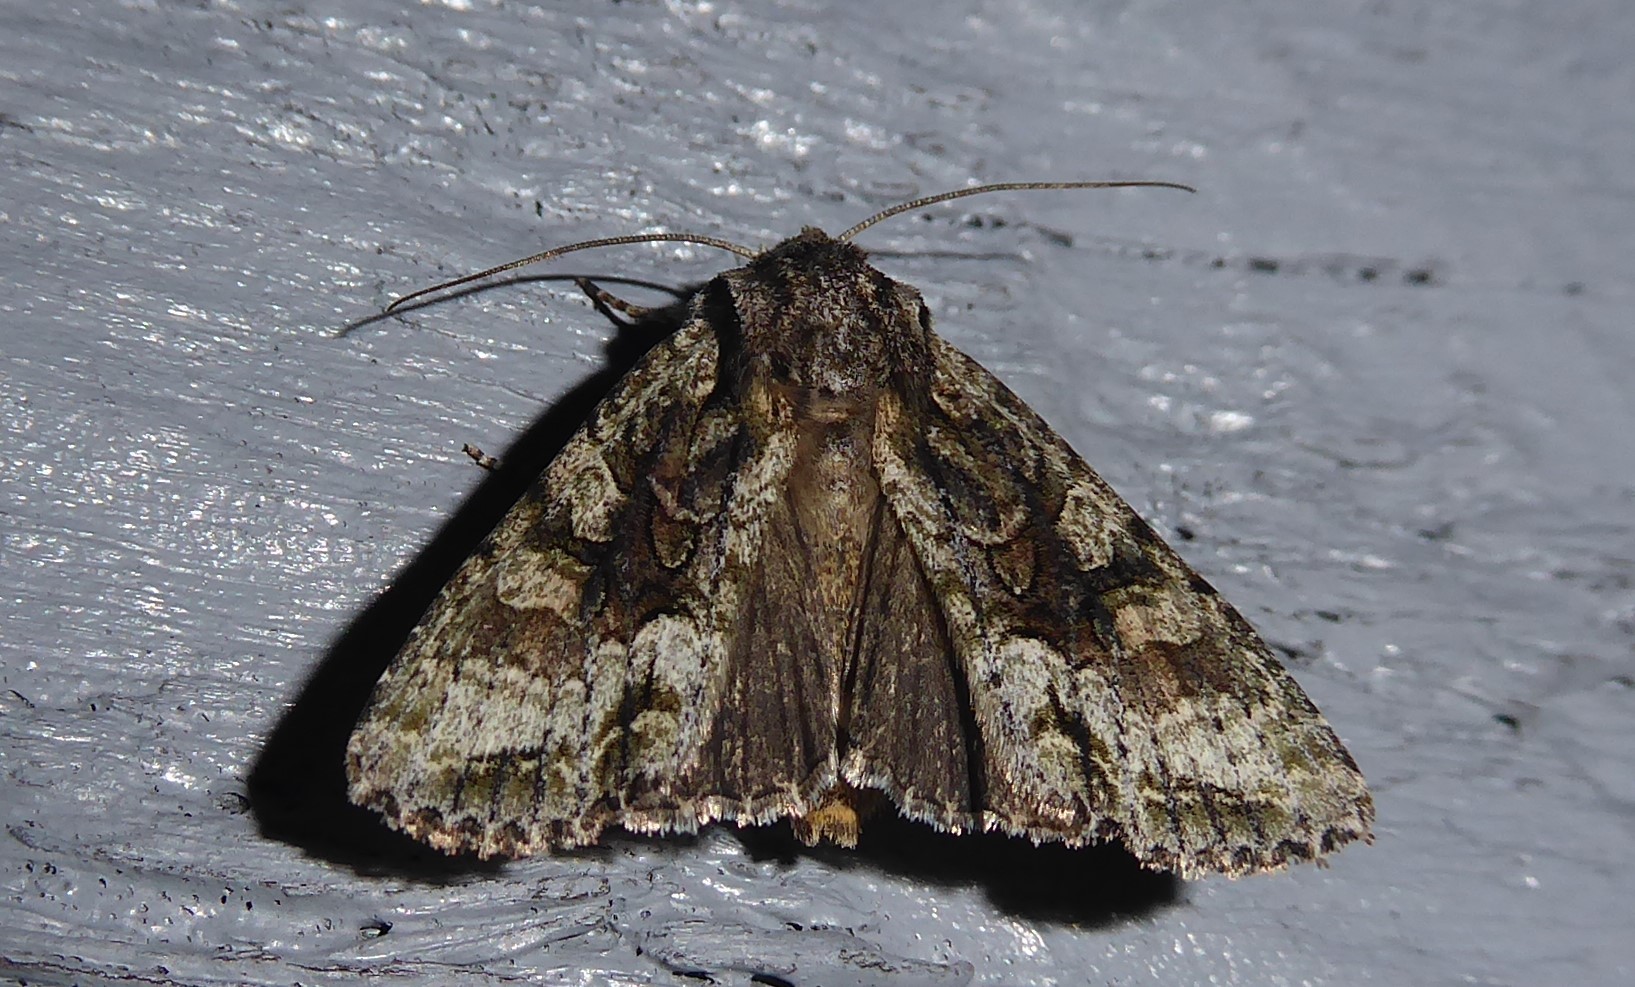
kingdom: Animalia
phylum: Arthropoda
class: Insecta
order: Lepidoptera
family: Noctuidae
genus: Ichneutica
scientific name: Ichneutica mutans
